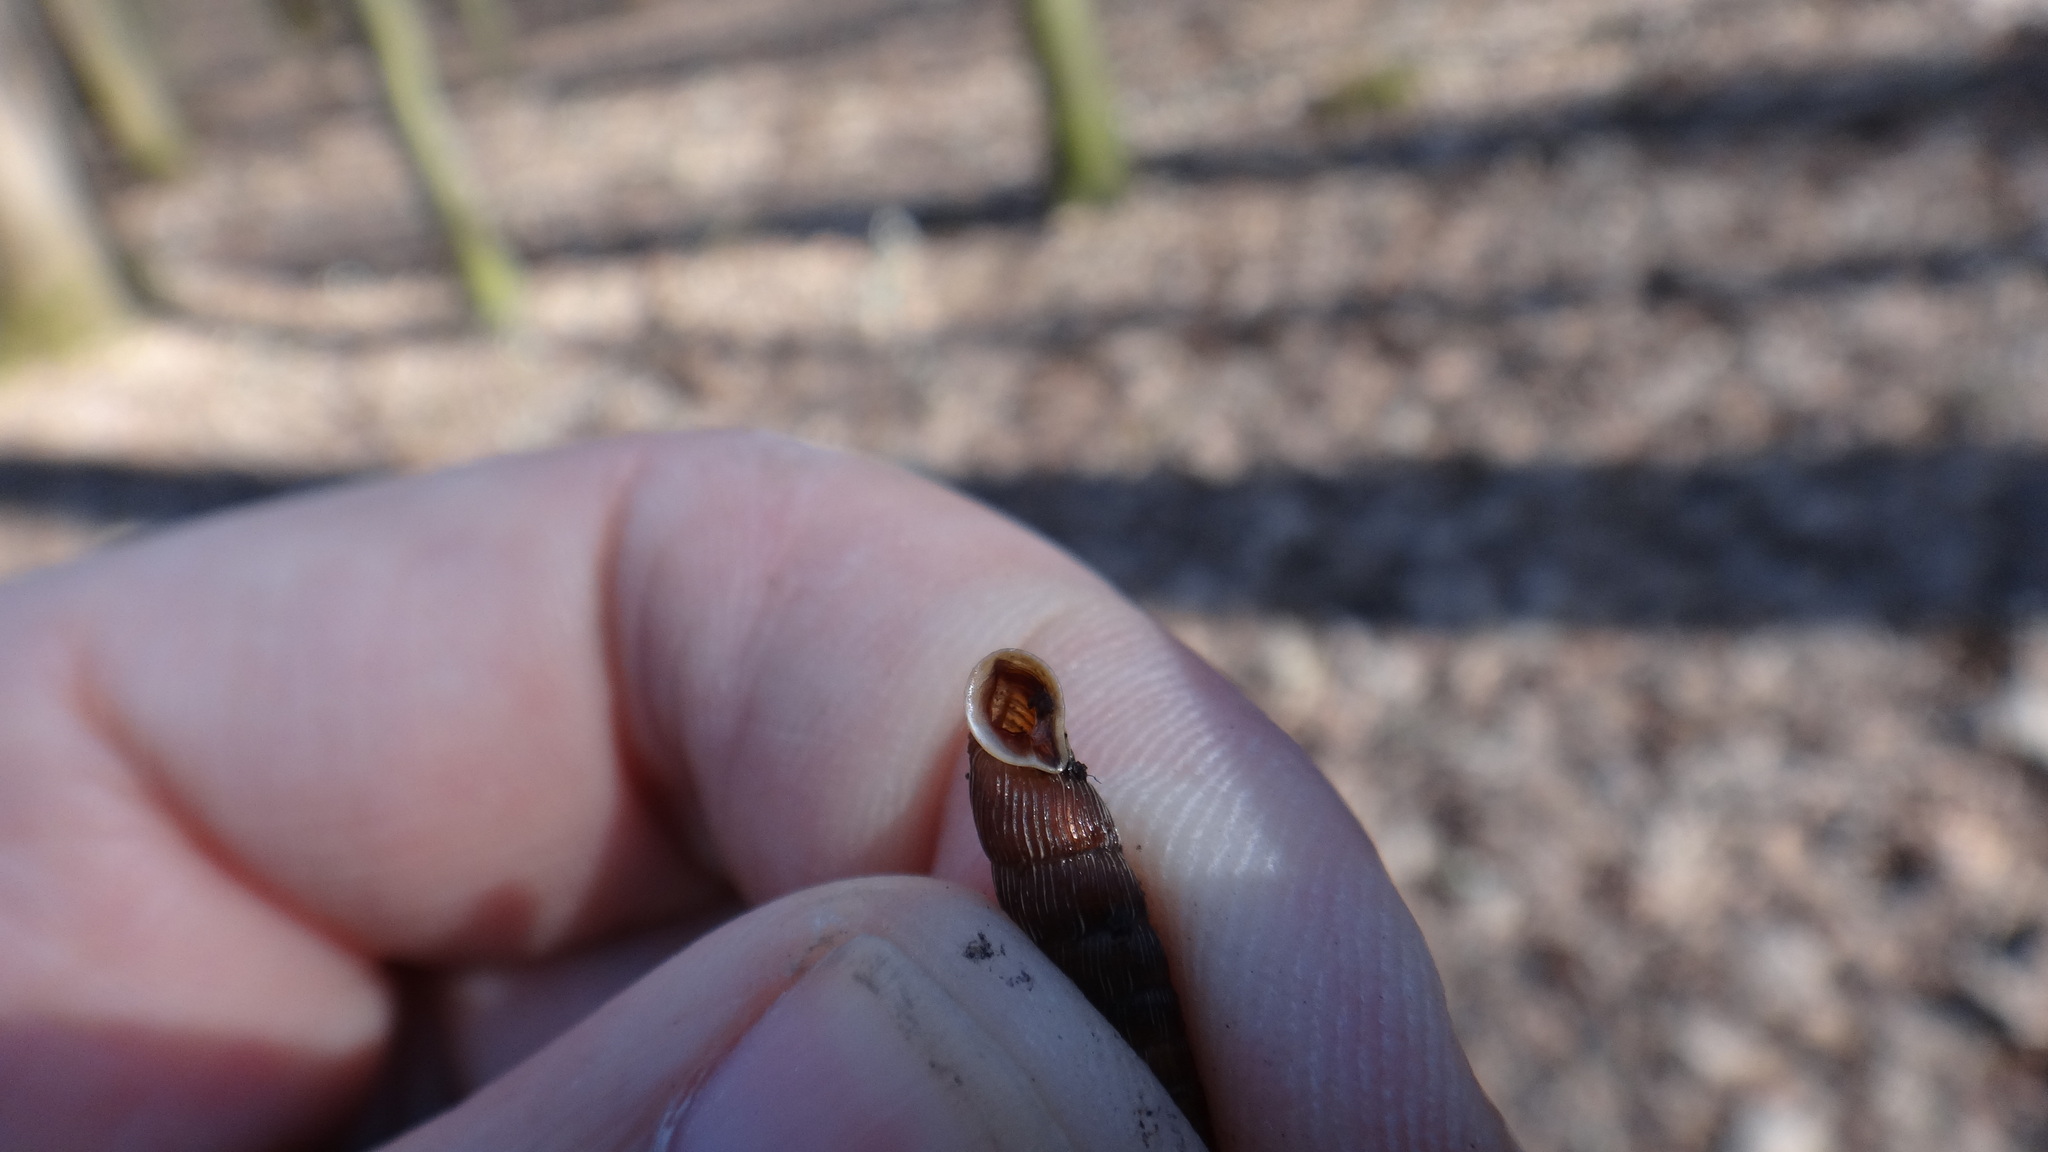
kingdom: Animalia
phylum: Mollusca
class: Gastropoda
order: Stylommatophora
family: Clausiliidae
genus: Strigillaria
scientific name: Strigillaria cana
